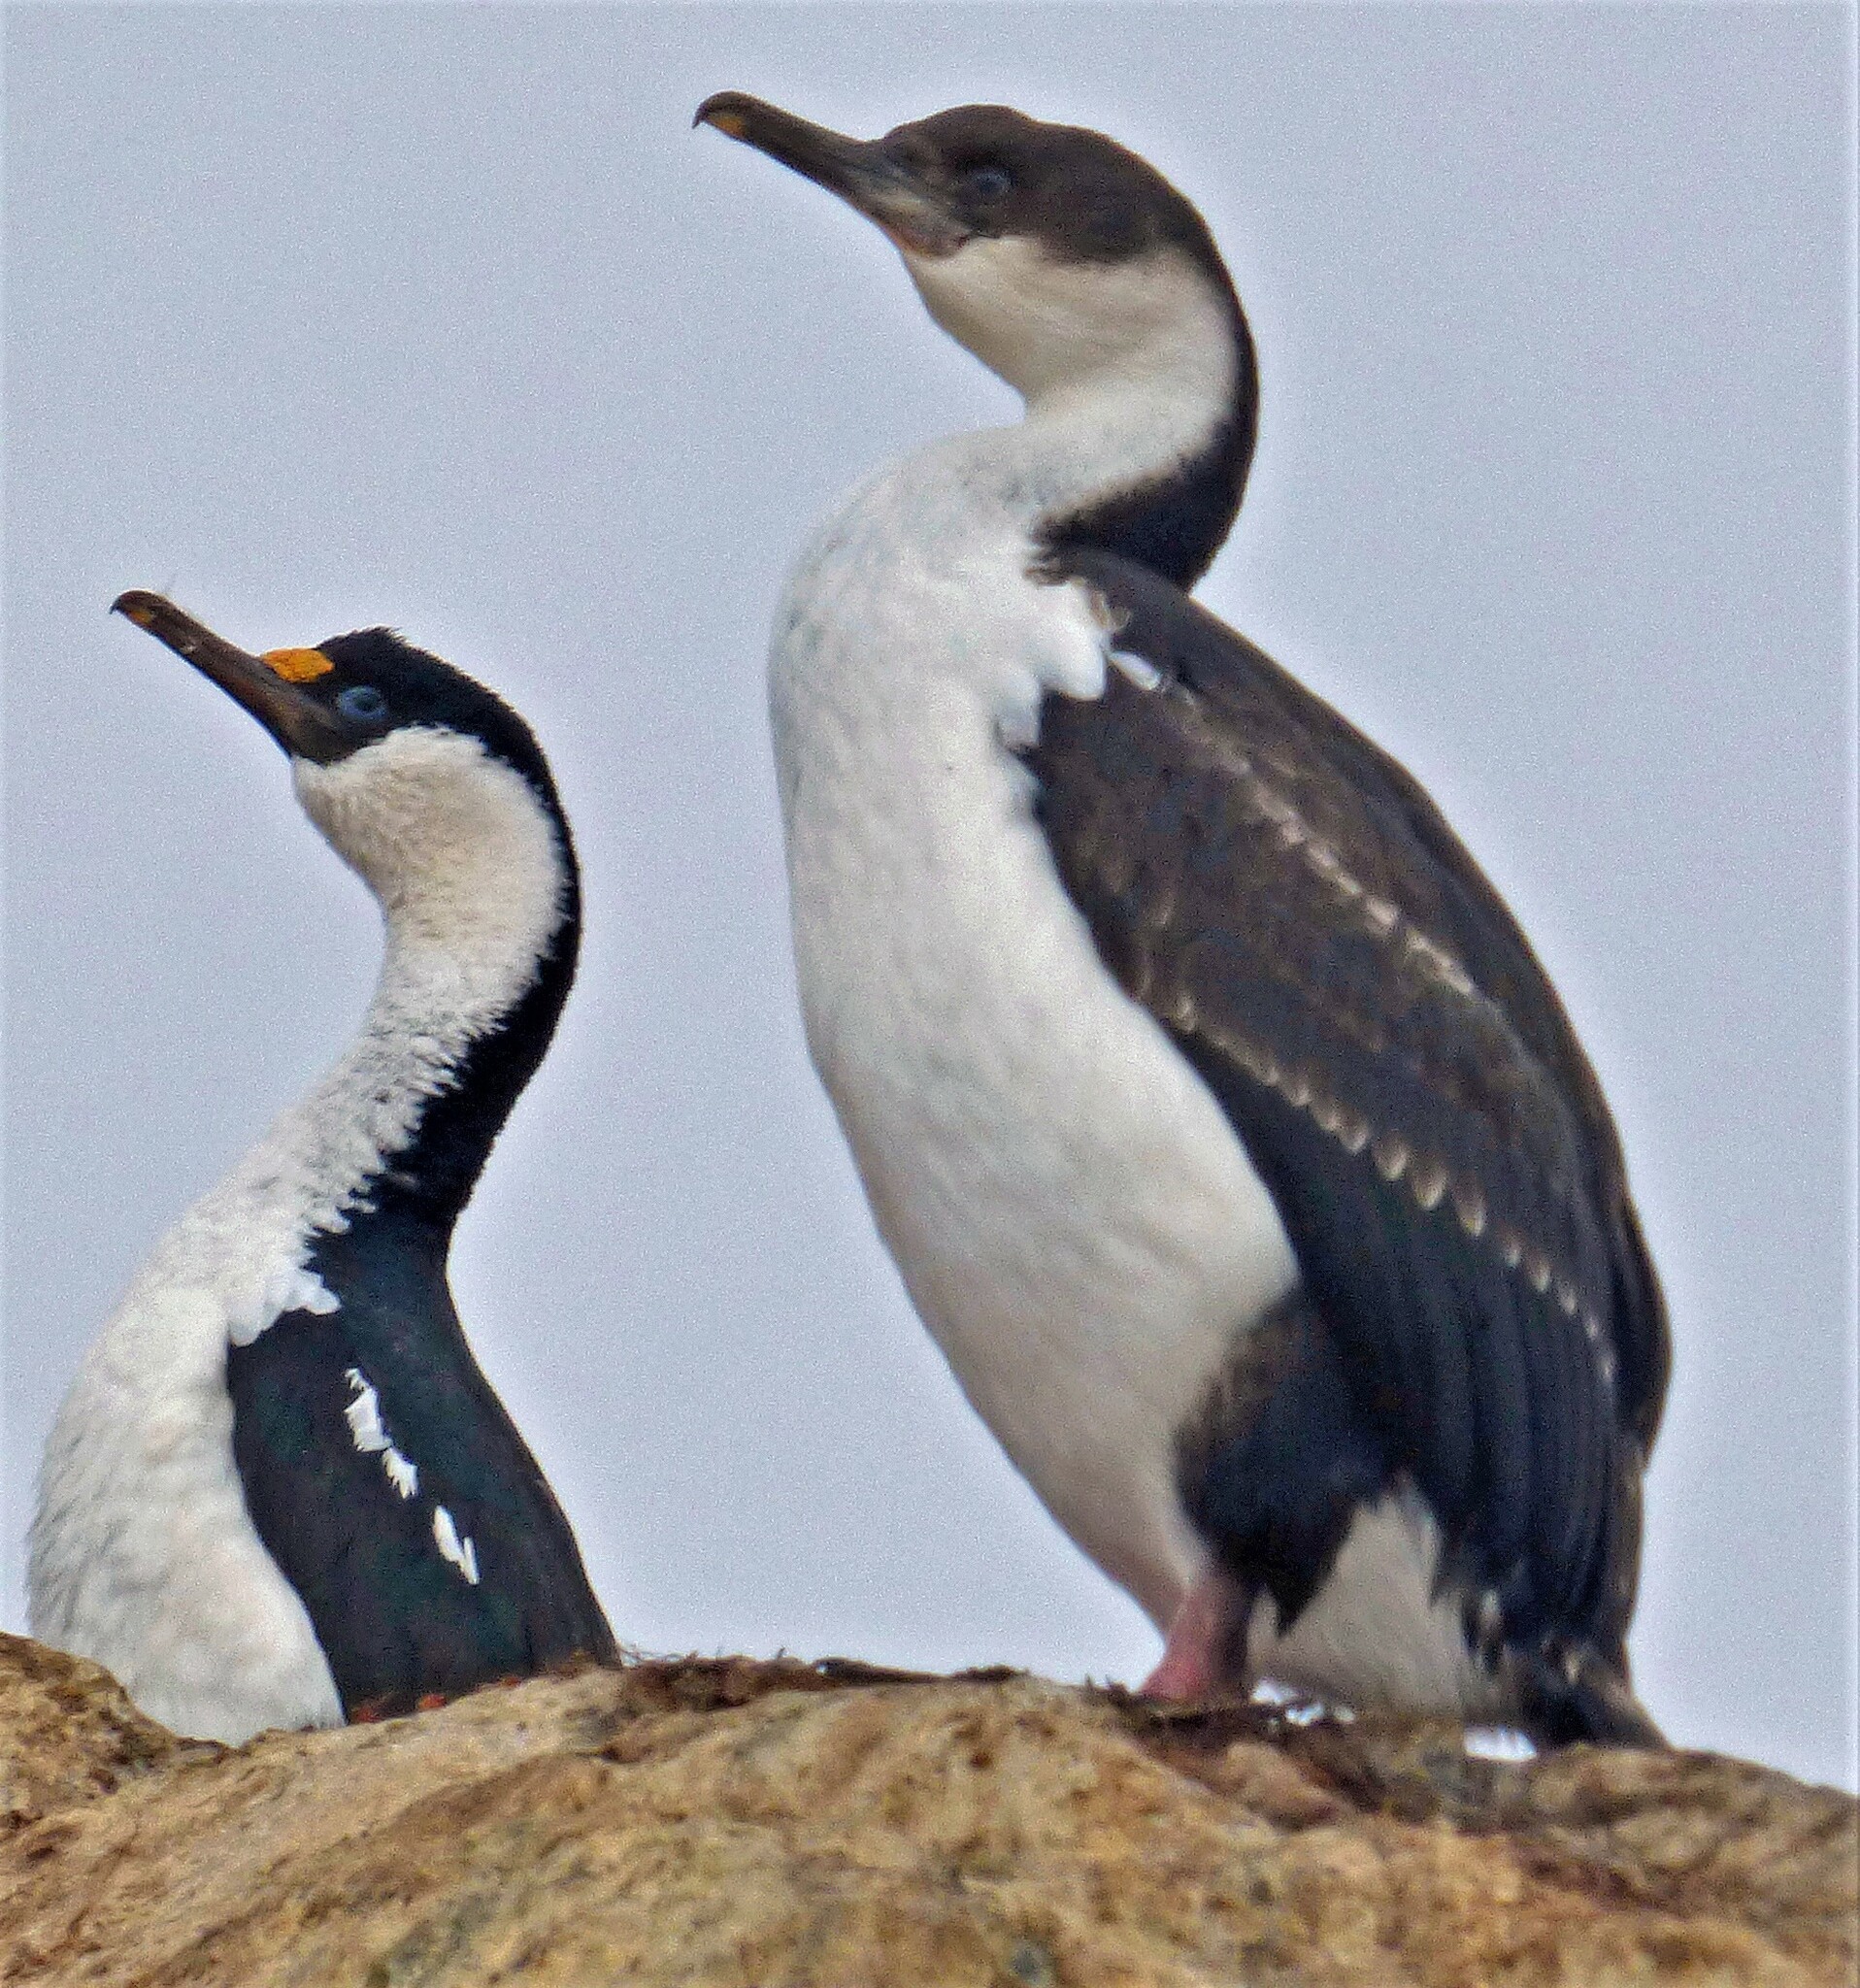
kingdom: Animalia
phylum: Chordata
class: Aves
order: Suliformes
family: Phalacrocoracidae
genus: Leucocarbo
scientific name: Leucocarbo atriceps
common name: Imperial shag
